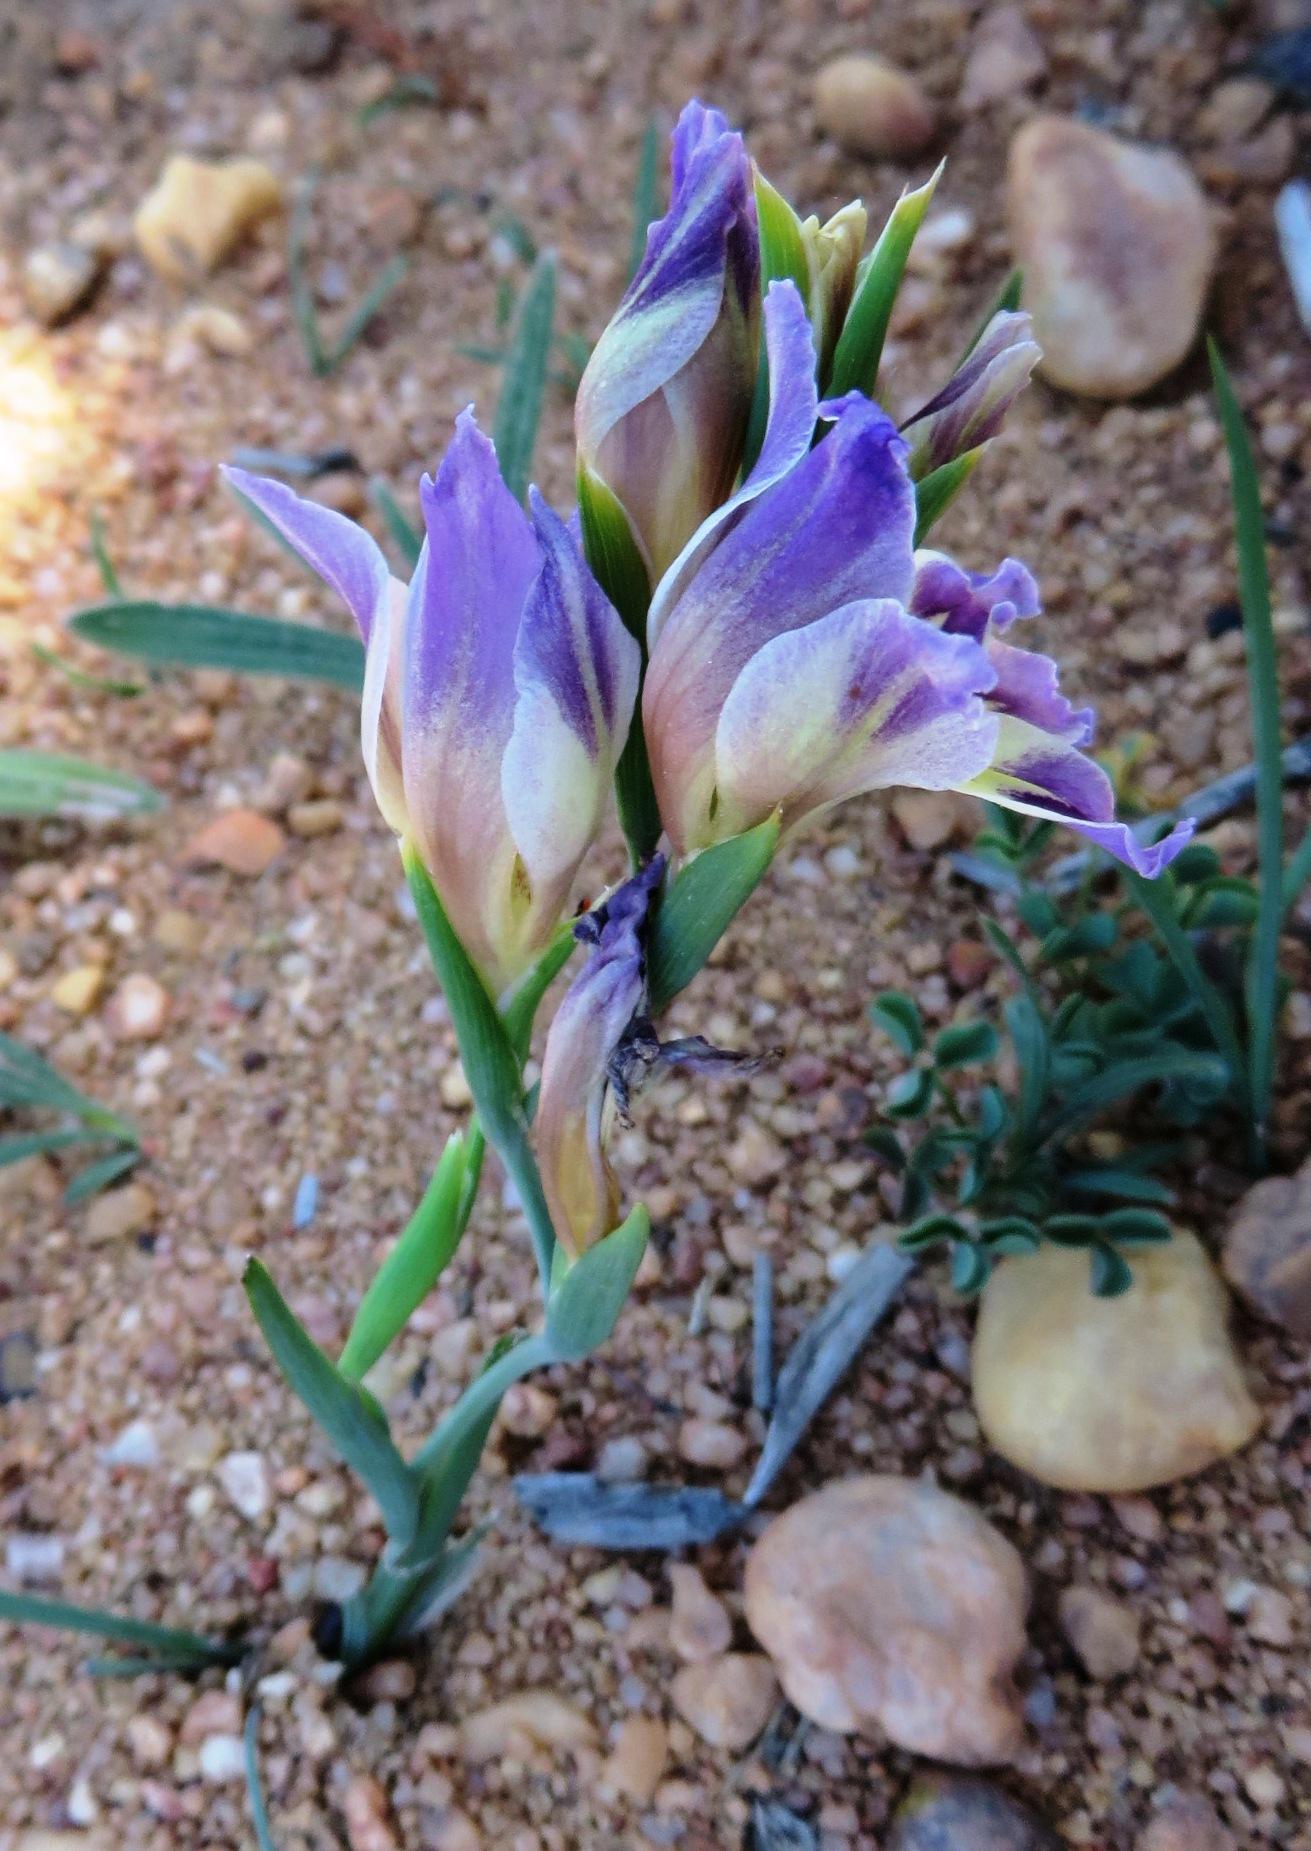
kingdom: Plantae
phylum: Tracheophyta
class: Liliopsida
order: Asparagales
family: Iridaceae
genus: Gladiolus
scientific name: Gladiolus venustus
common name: Purple kalkoentjie
